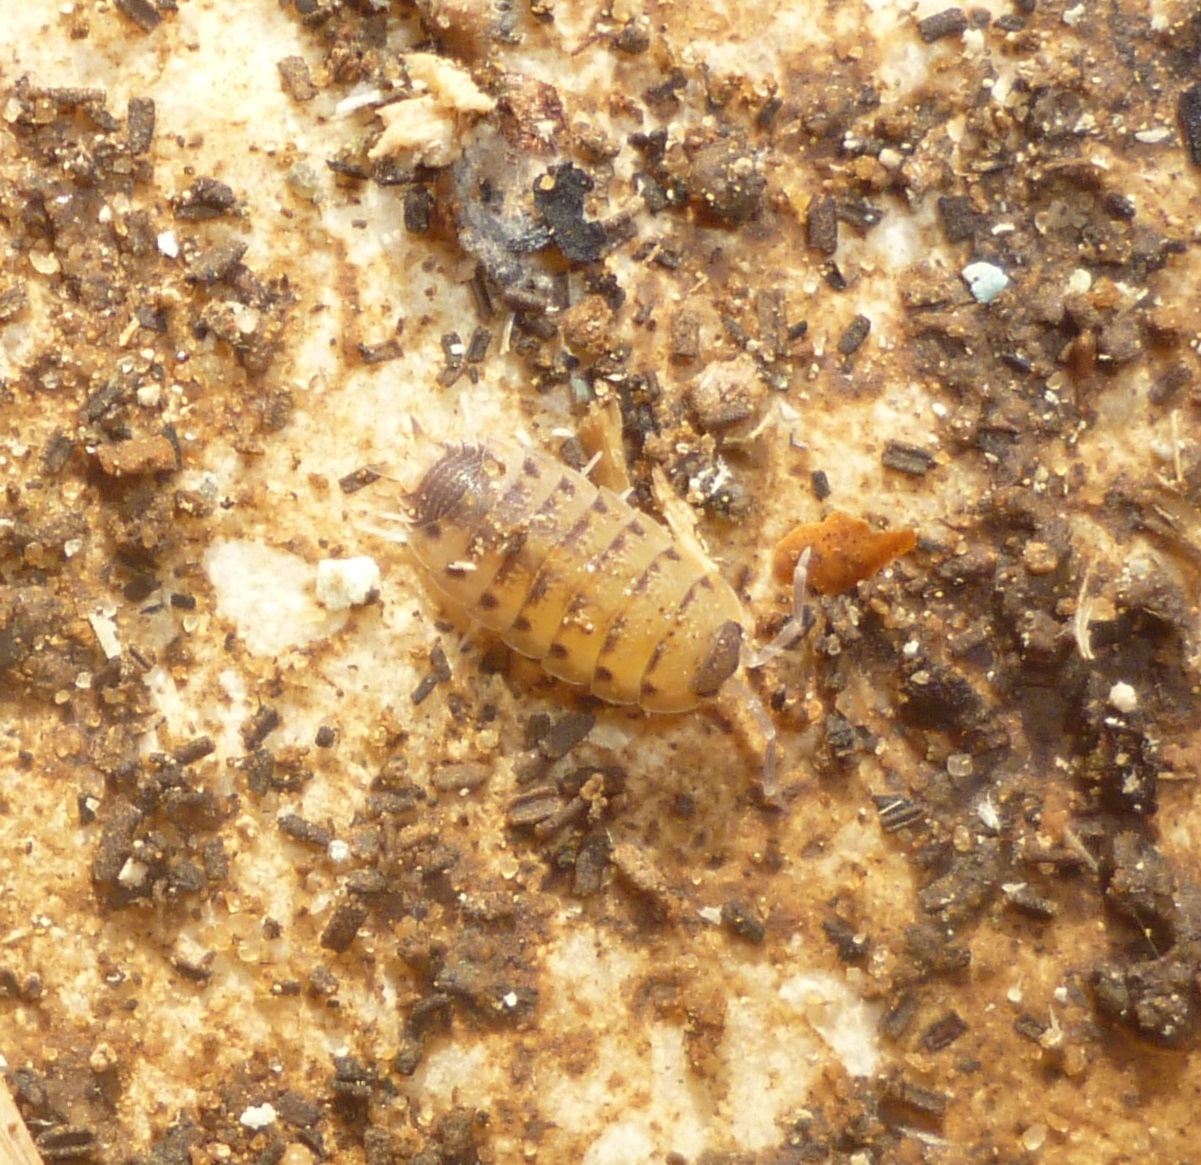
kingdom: Animalia
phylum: Arthropoda
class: Malacostraca
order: Isopoda
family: Porcellionidae
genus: Proporcellio
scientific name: Proporcellio vulcanius
